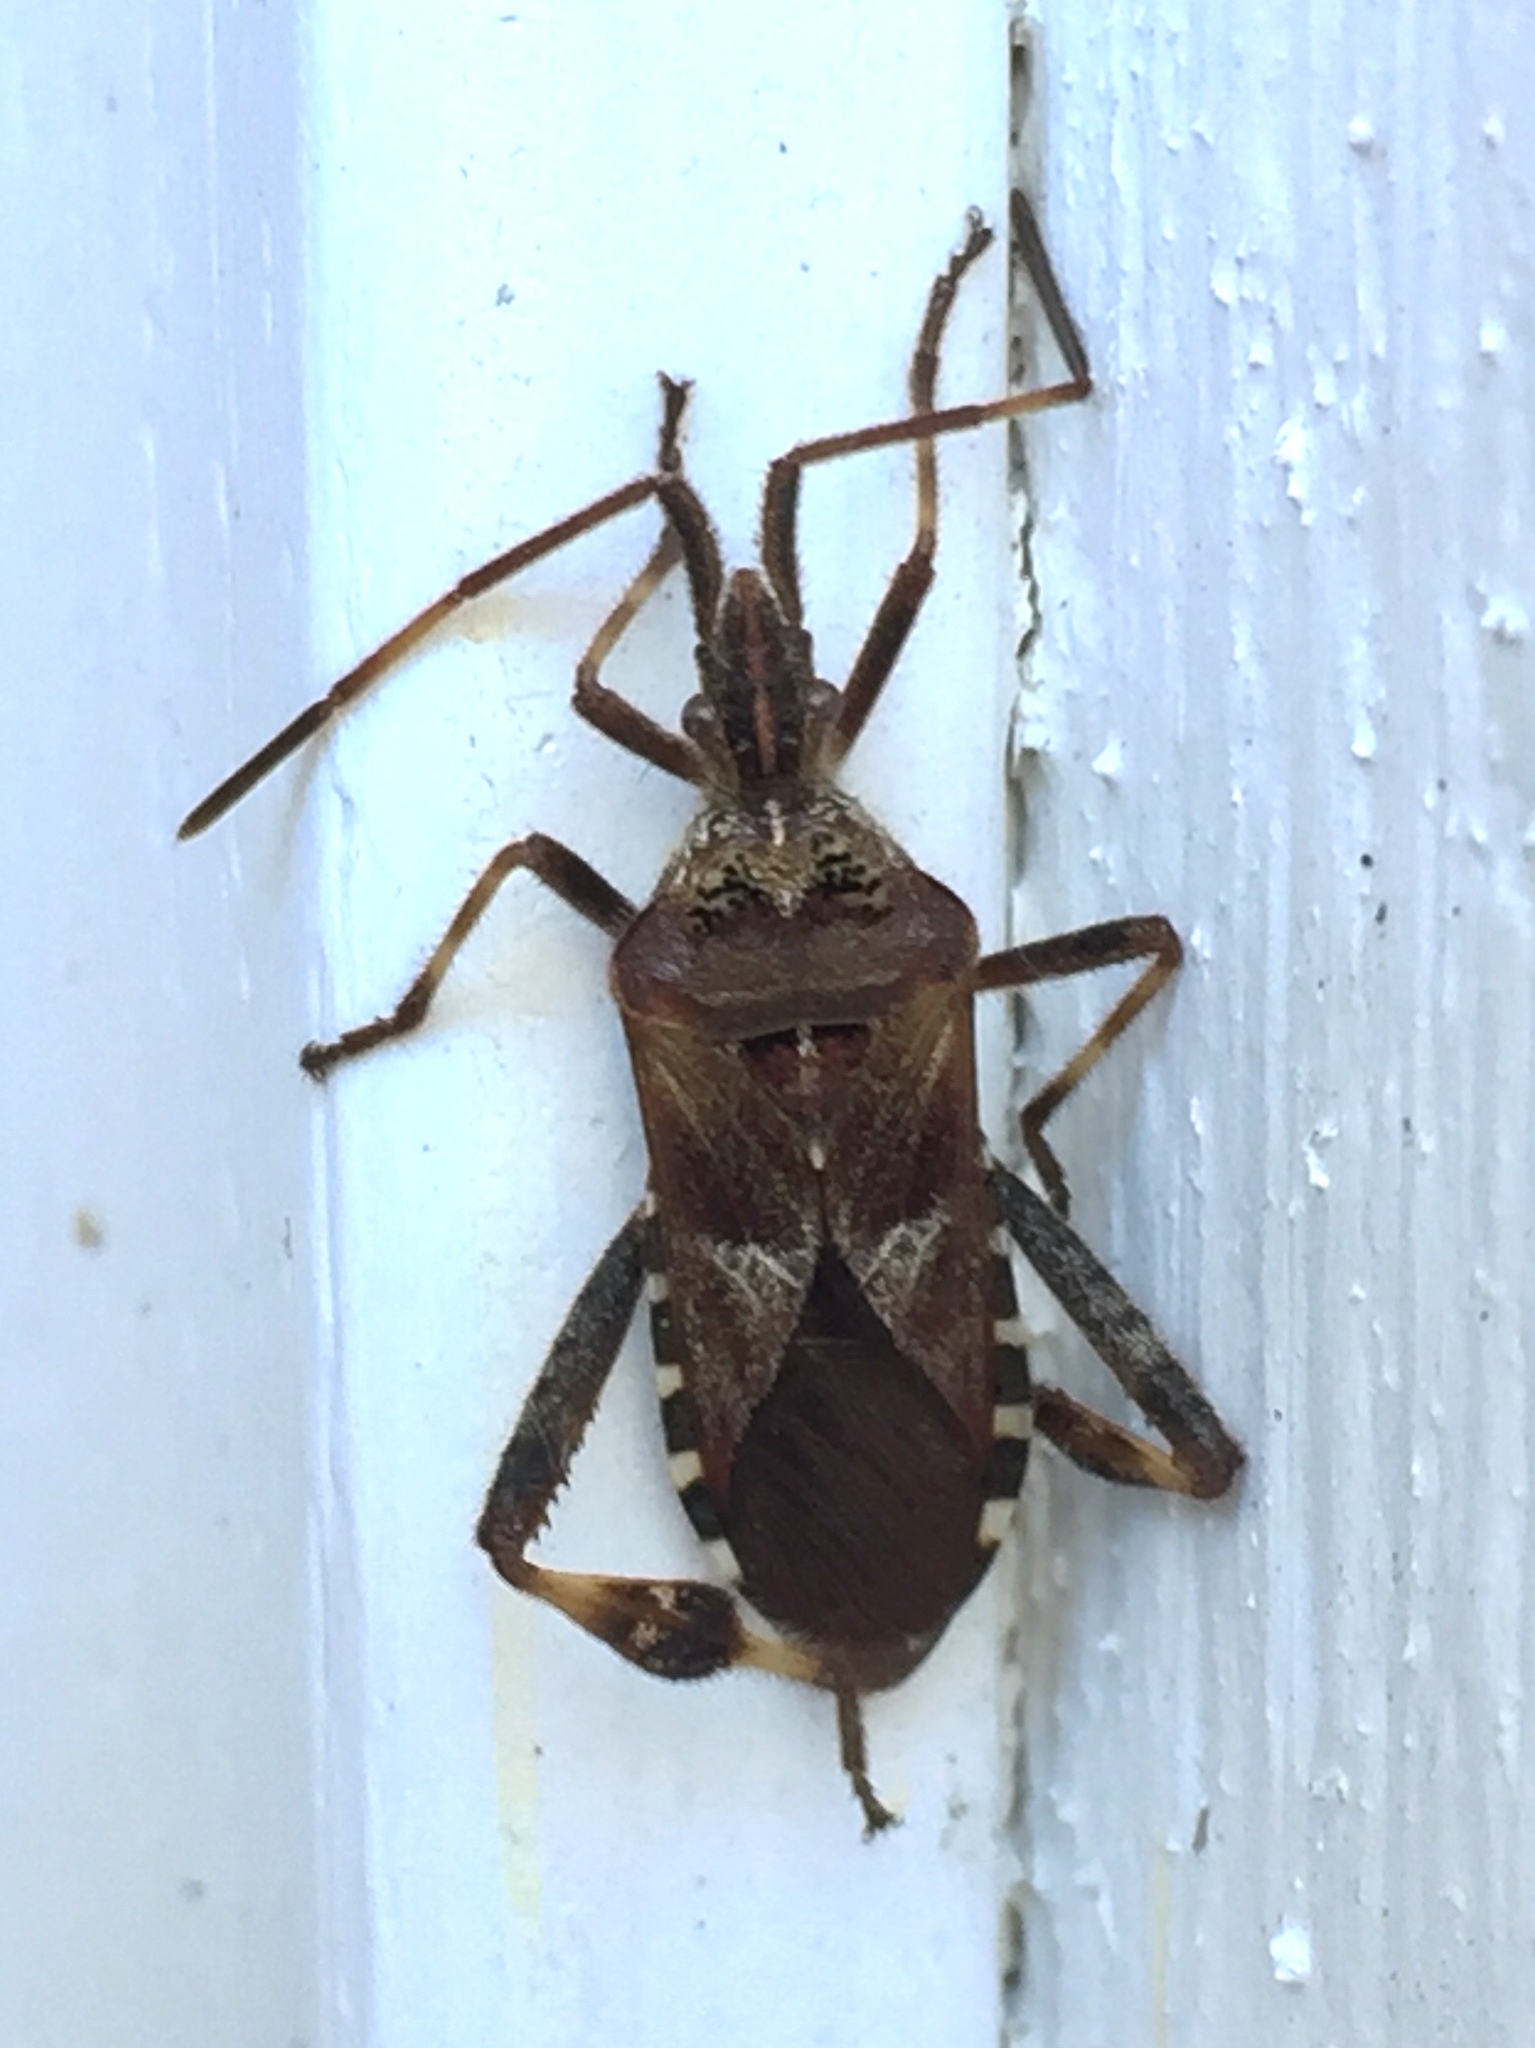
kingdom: Animalia
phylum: Arthropoda
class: Insecta
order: Hemiptera
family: Coreidae
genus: Leptoglossus
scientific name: Leptoglossus occidentalis
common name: Western conifer-seed bug
